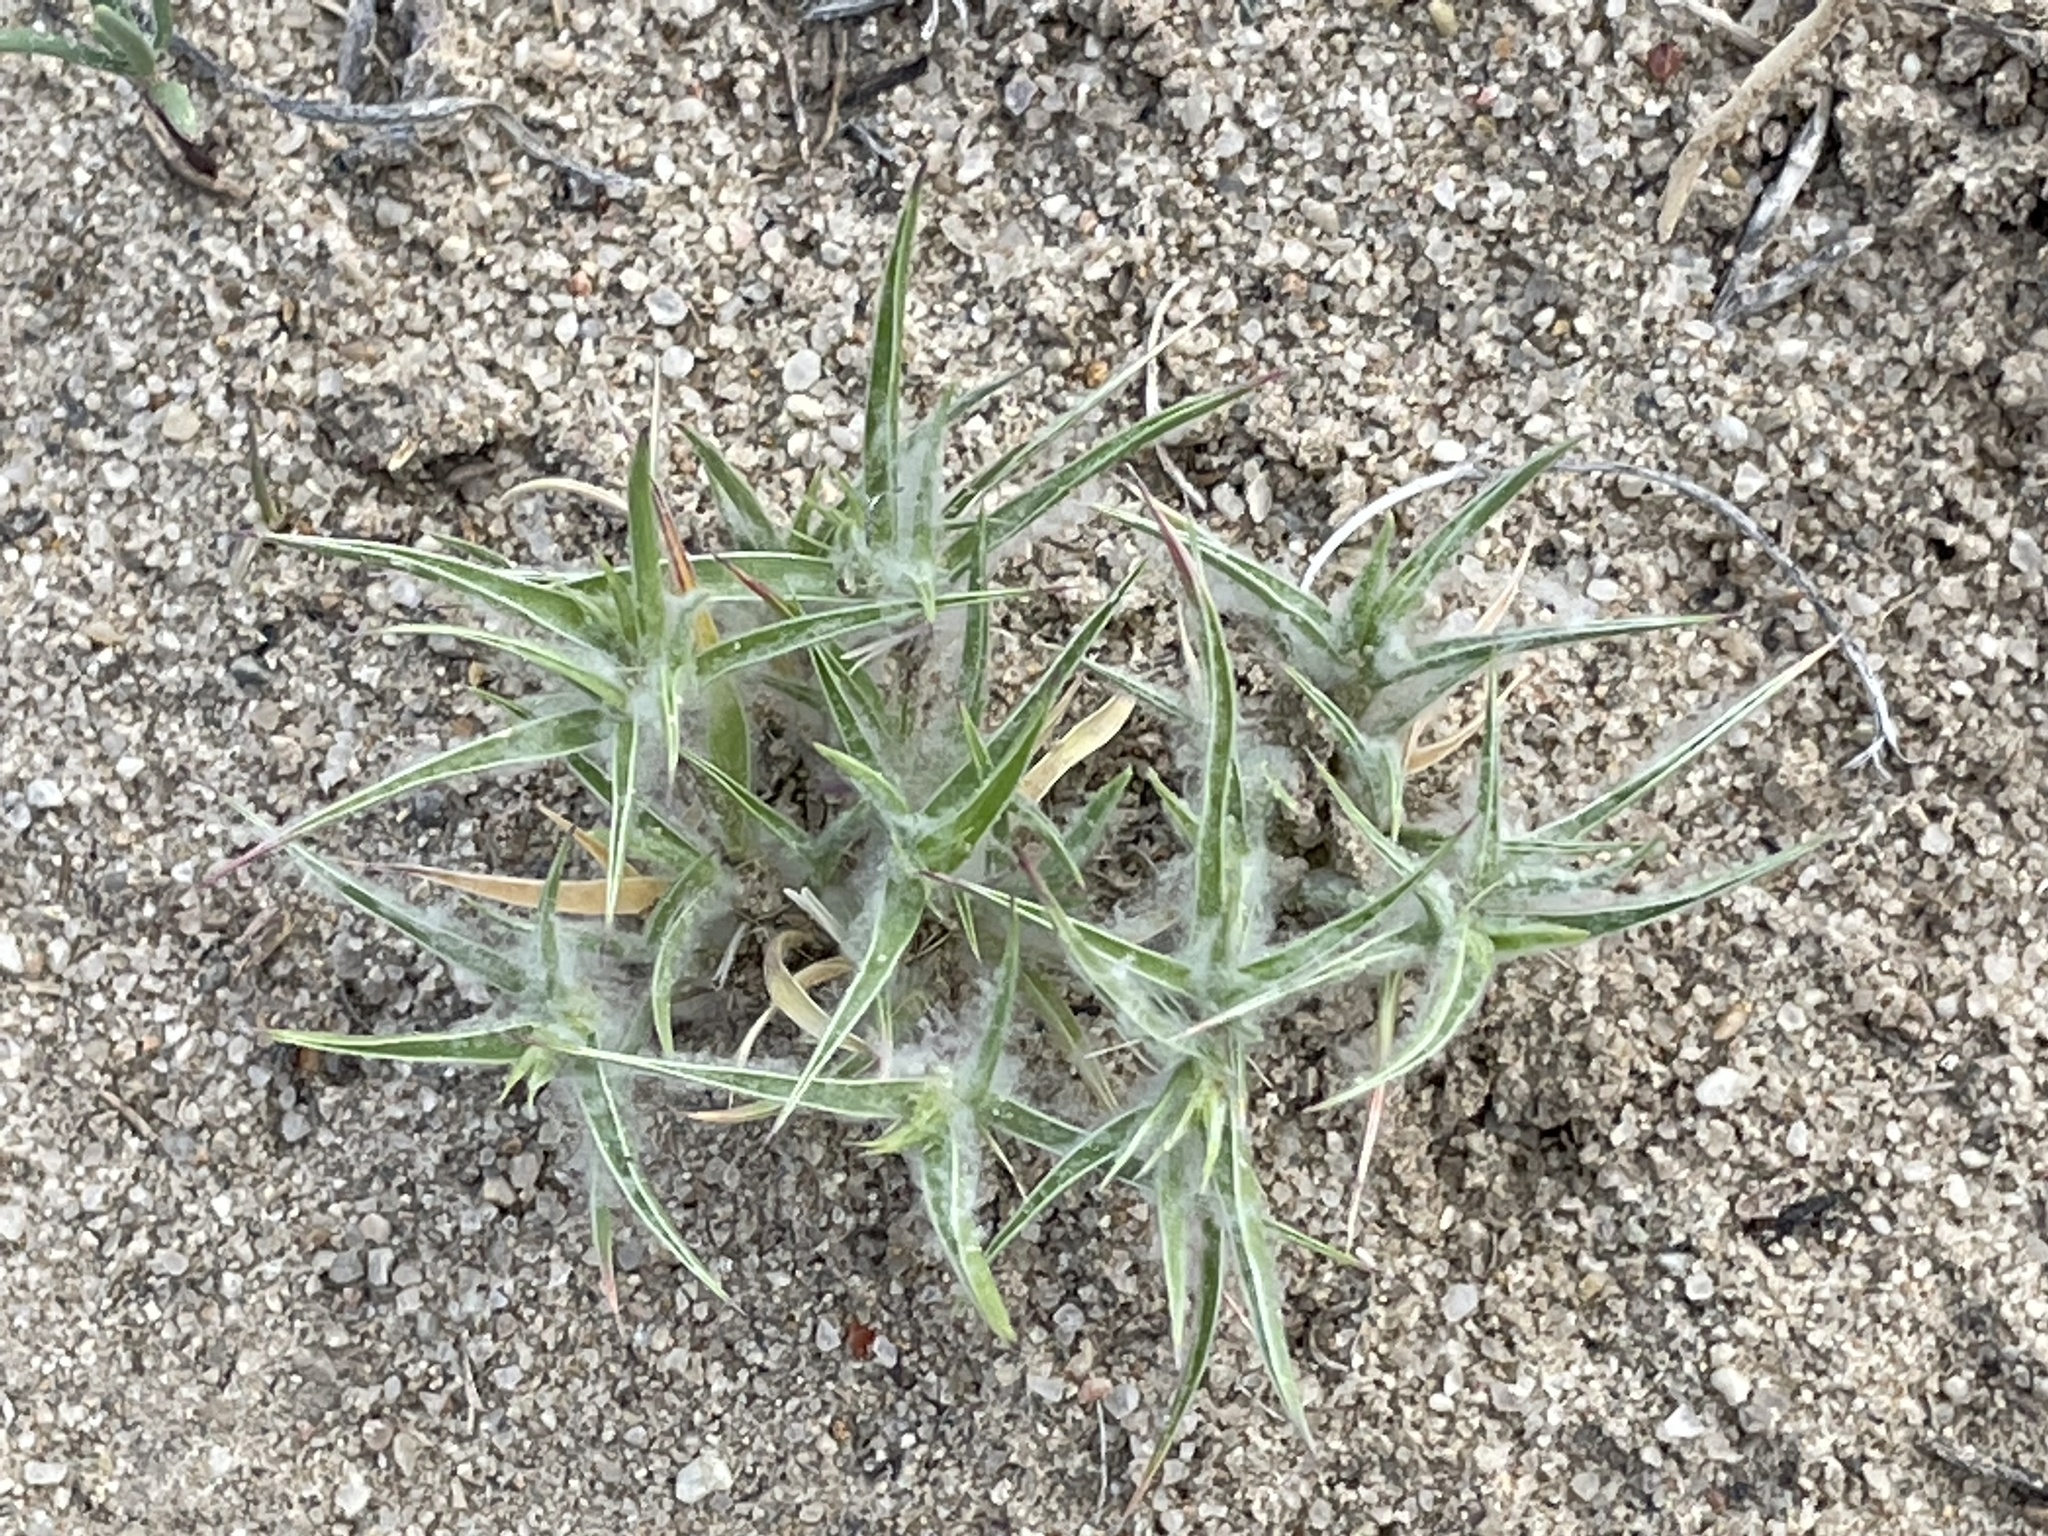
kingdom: Plantae
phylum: Tracheophyta
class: Liliopsida
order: Poales
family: Poaceae
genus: Munroa
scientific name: Munroa squarrosa
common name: False buffalo grass
